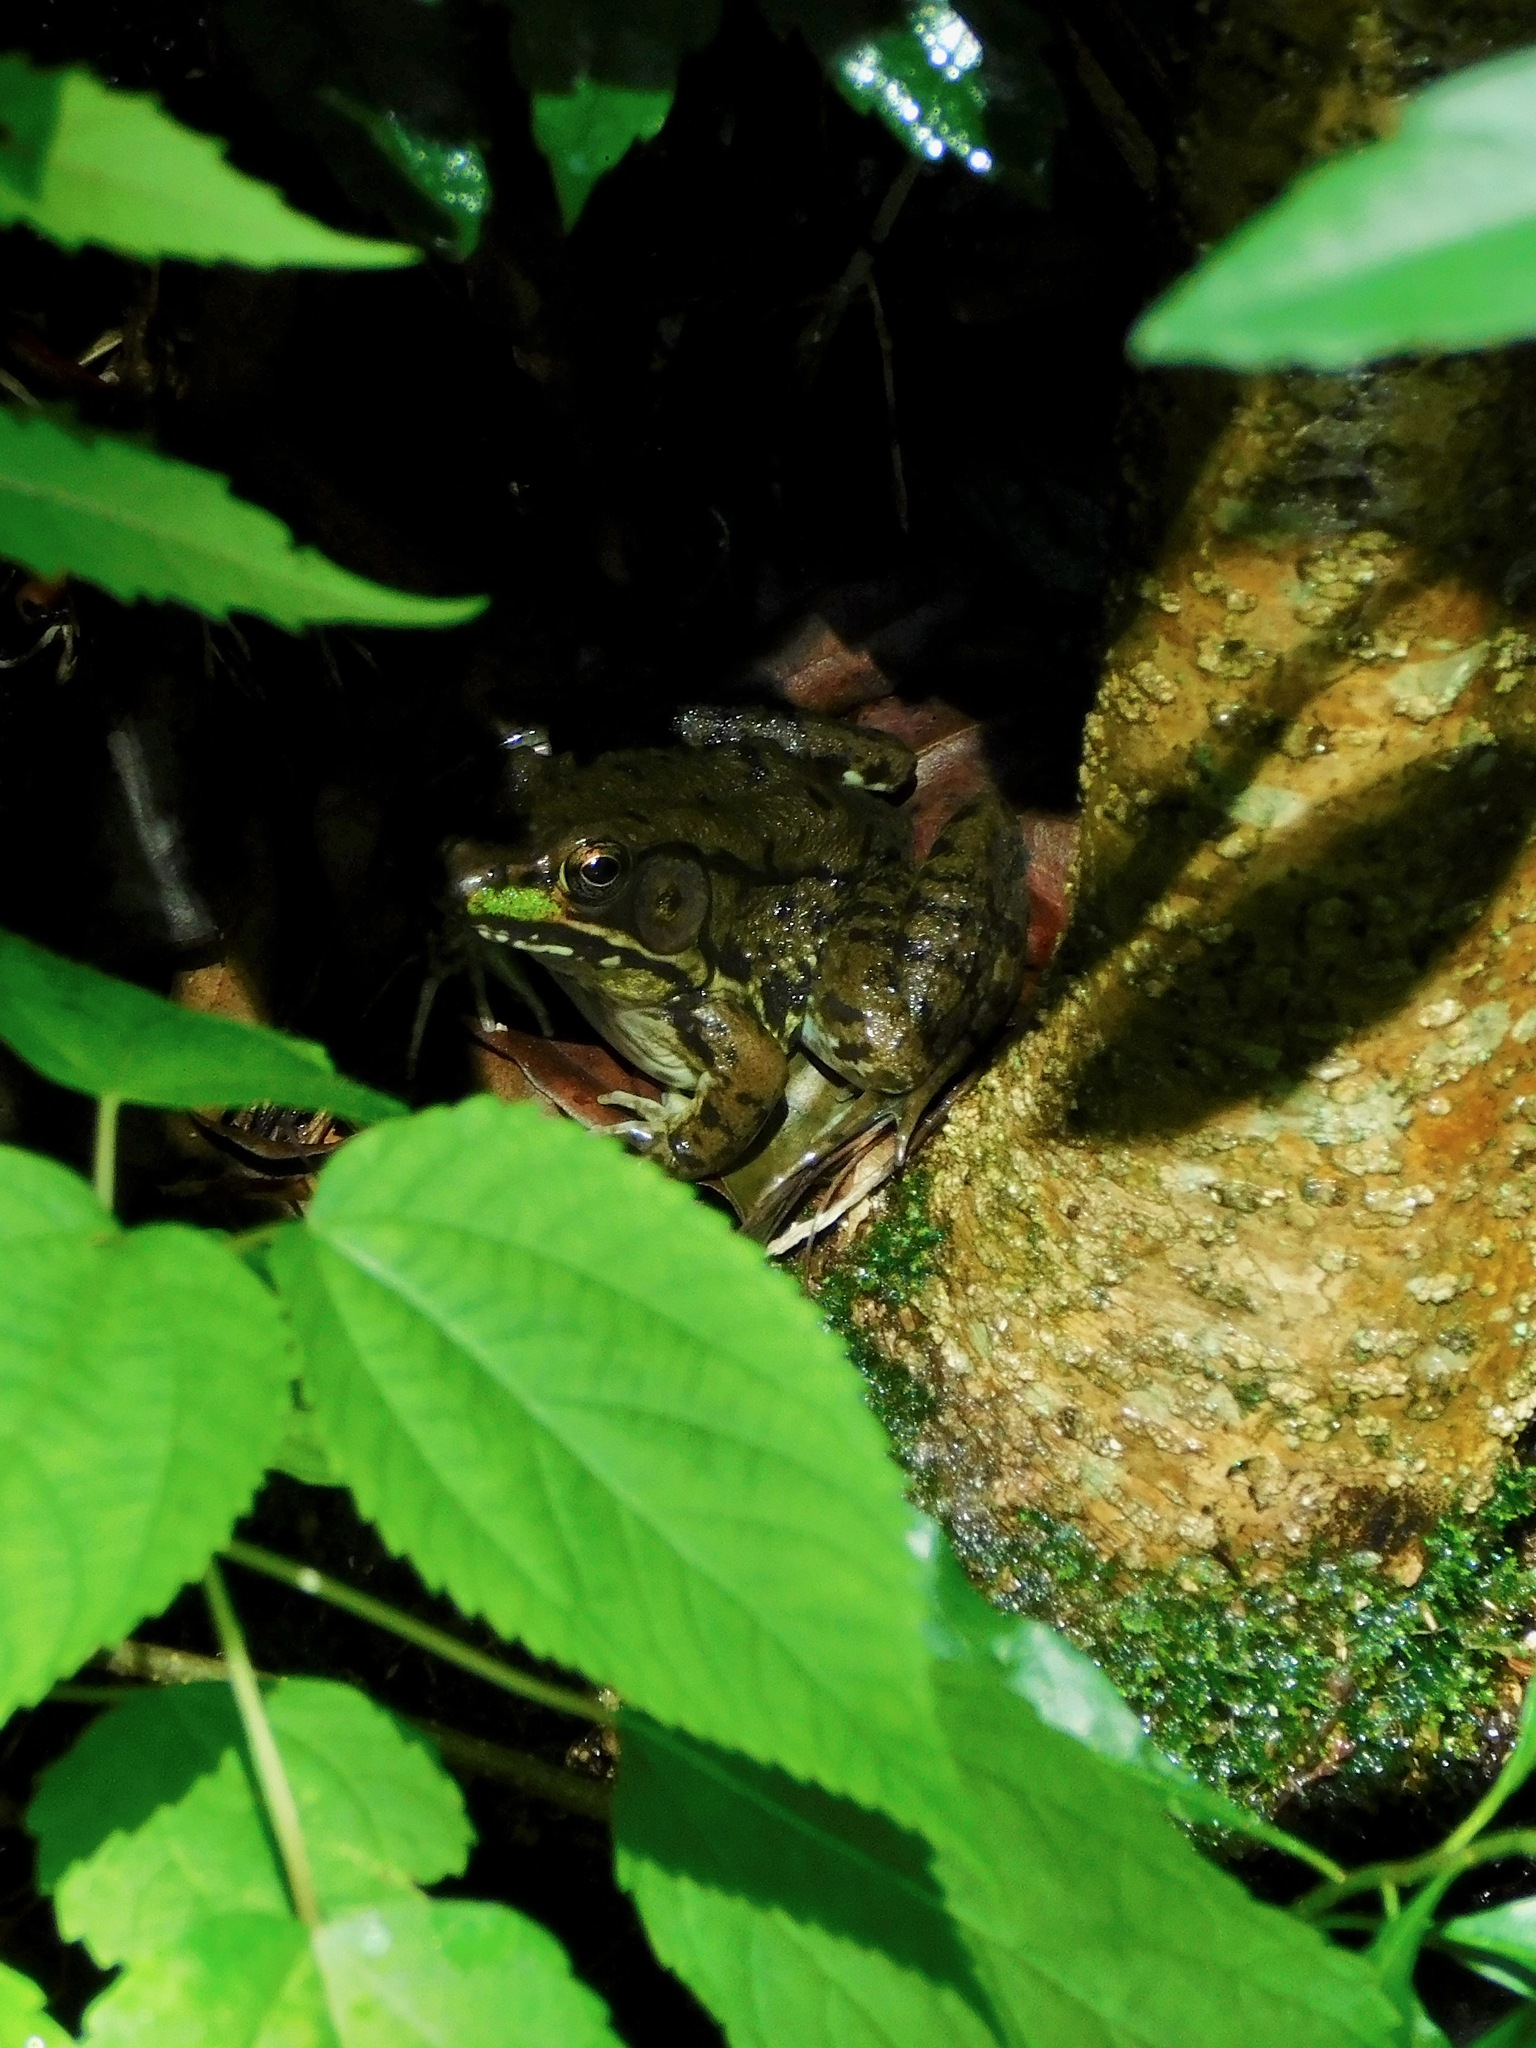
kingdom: Animalia
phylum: Chordata
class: Amphibia
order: Anura
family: Ranidae
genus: Lithobates
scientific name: Lithobates clamitans
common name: Green frog
